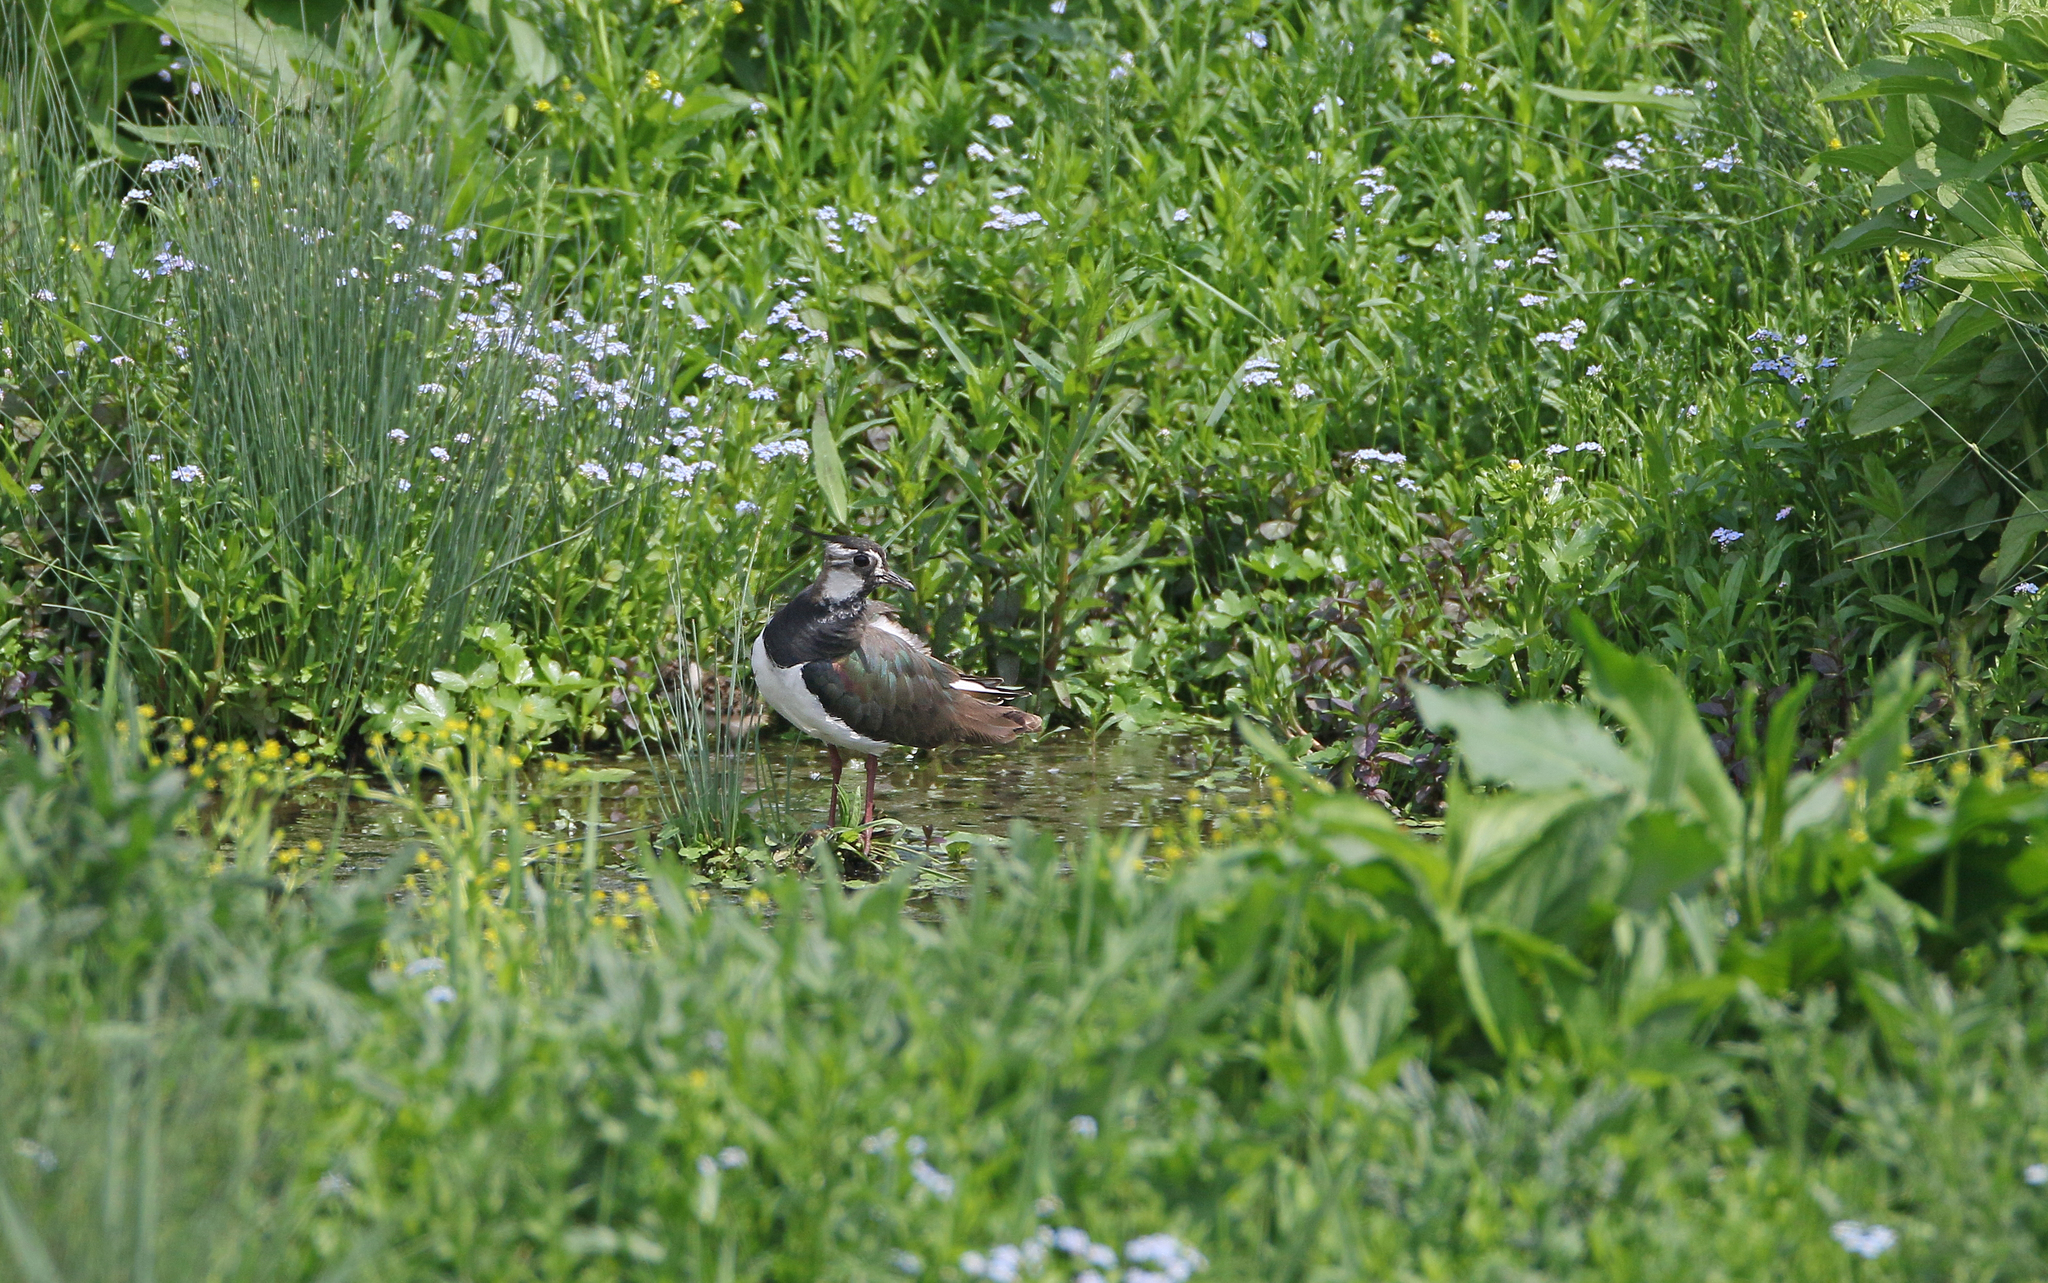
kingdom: Animalia
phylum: Chordata
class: Aves
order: Charadriiformes
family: Charadriidae
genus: Vanellus
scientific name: Vanellus vanellus
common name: Northern lapwing
